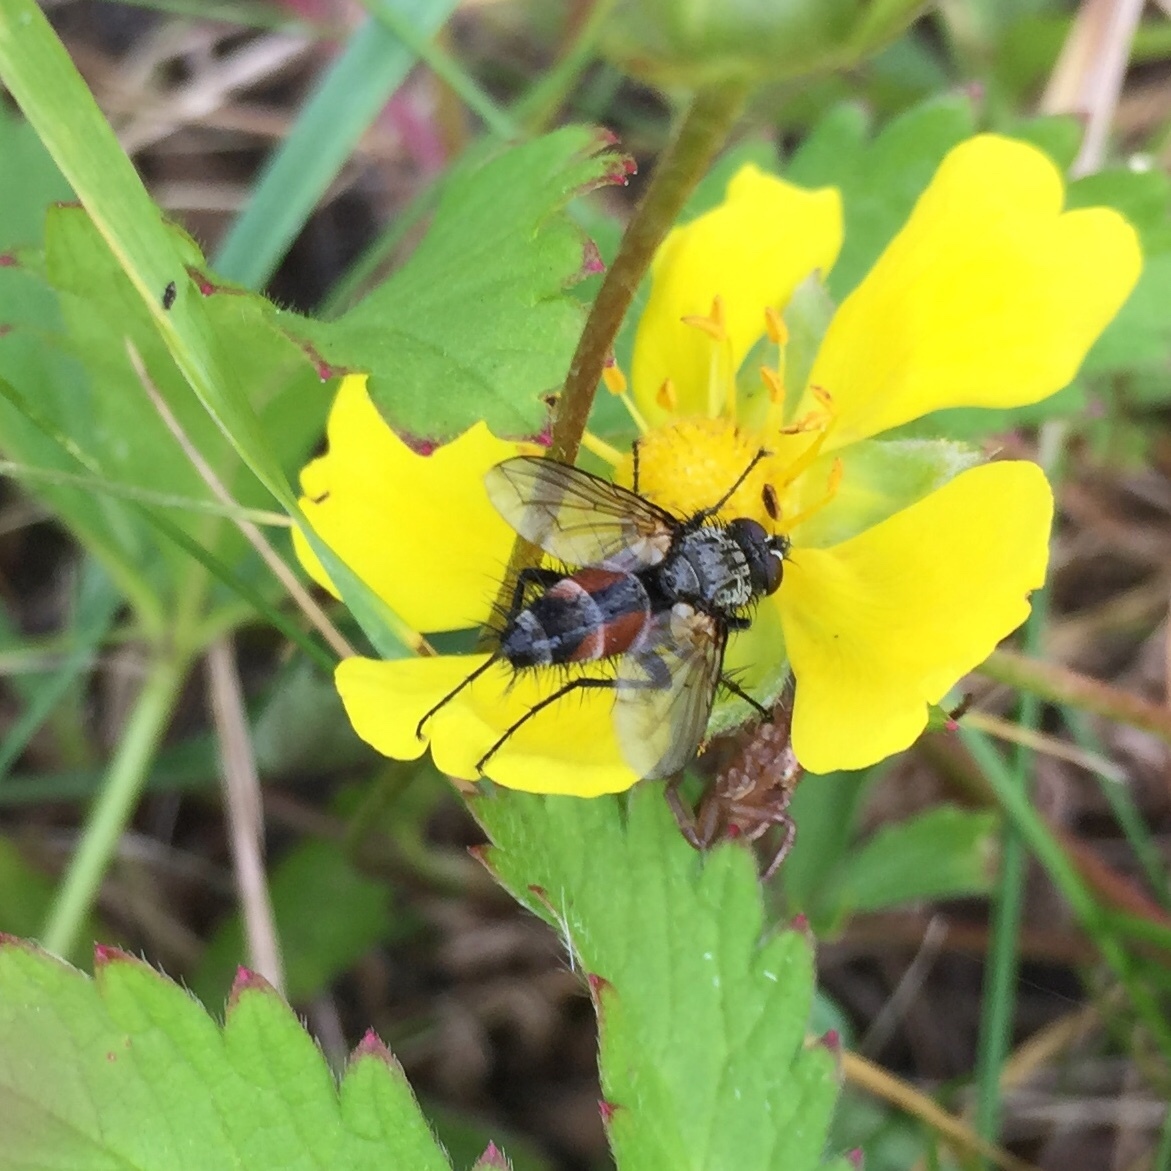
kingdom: Animalia
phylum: Arthropoda
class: Insecta
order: Diptera
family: Tachinidae
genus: Eriothrix
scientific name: Eriothrix rufomaculatus
